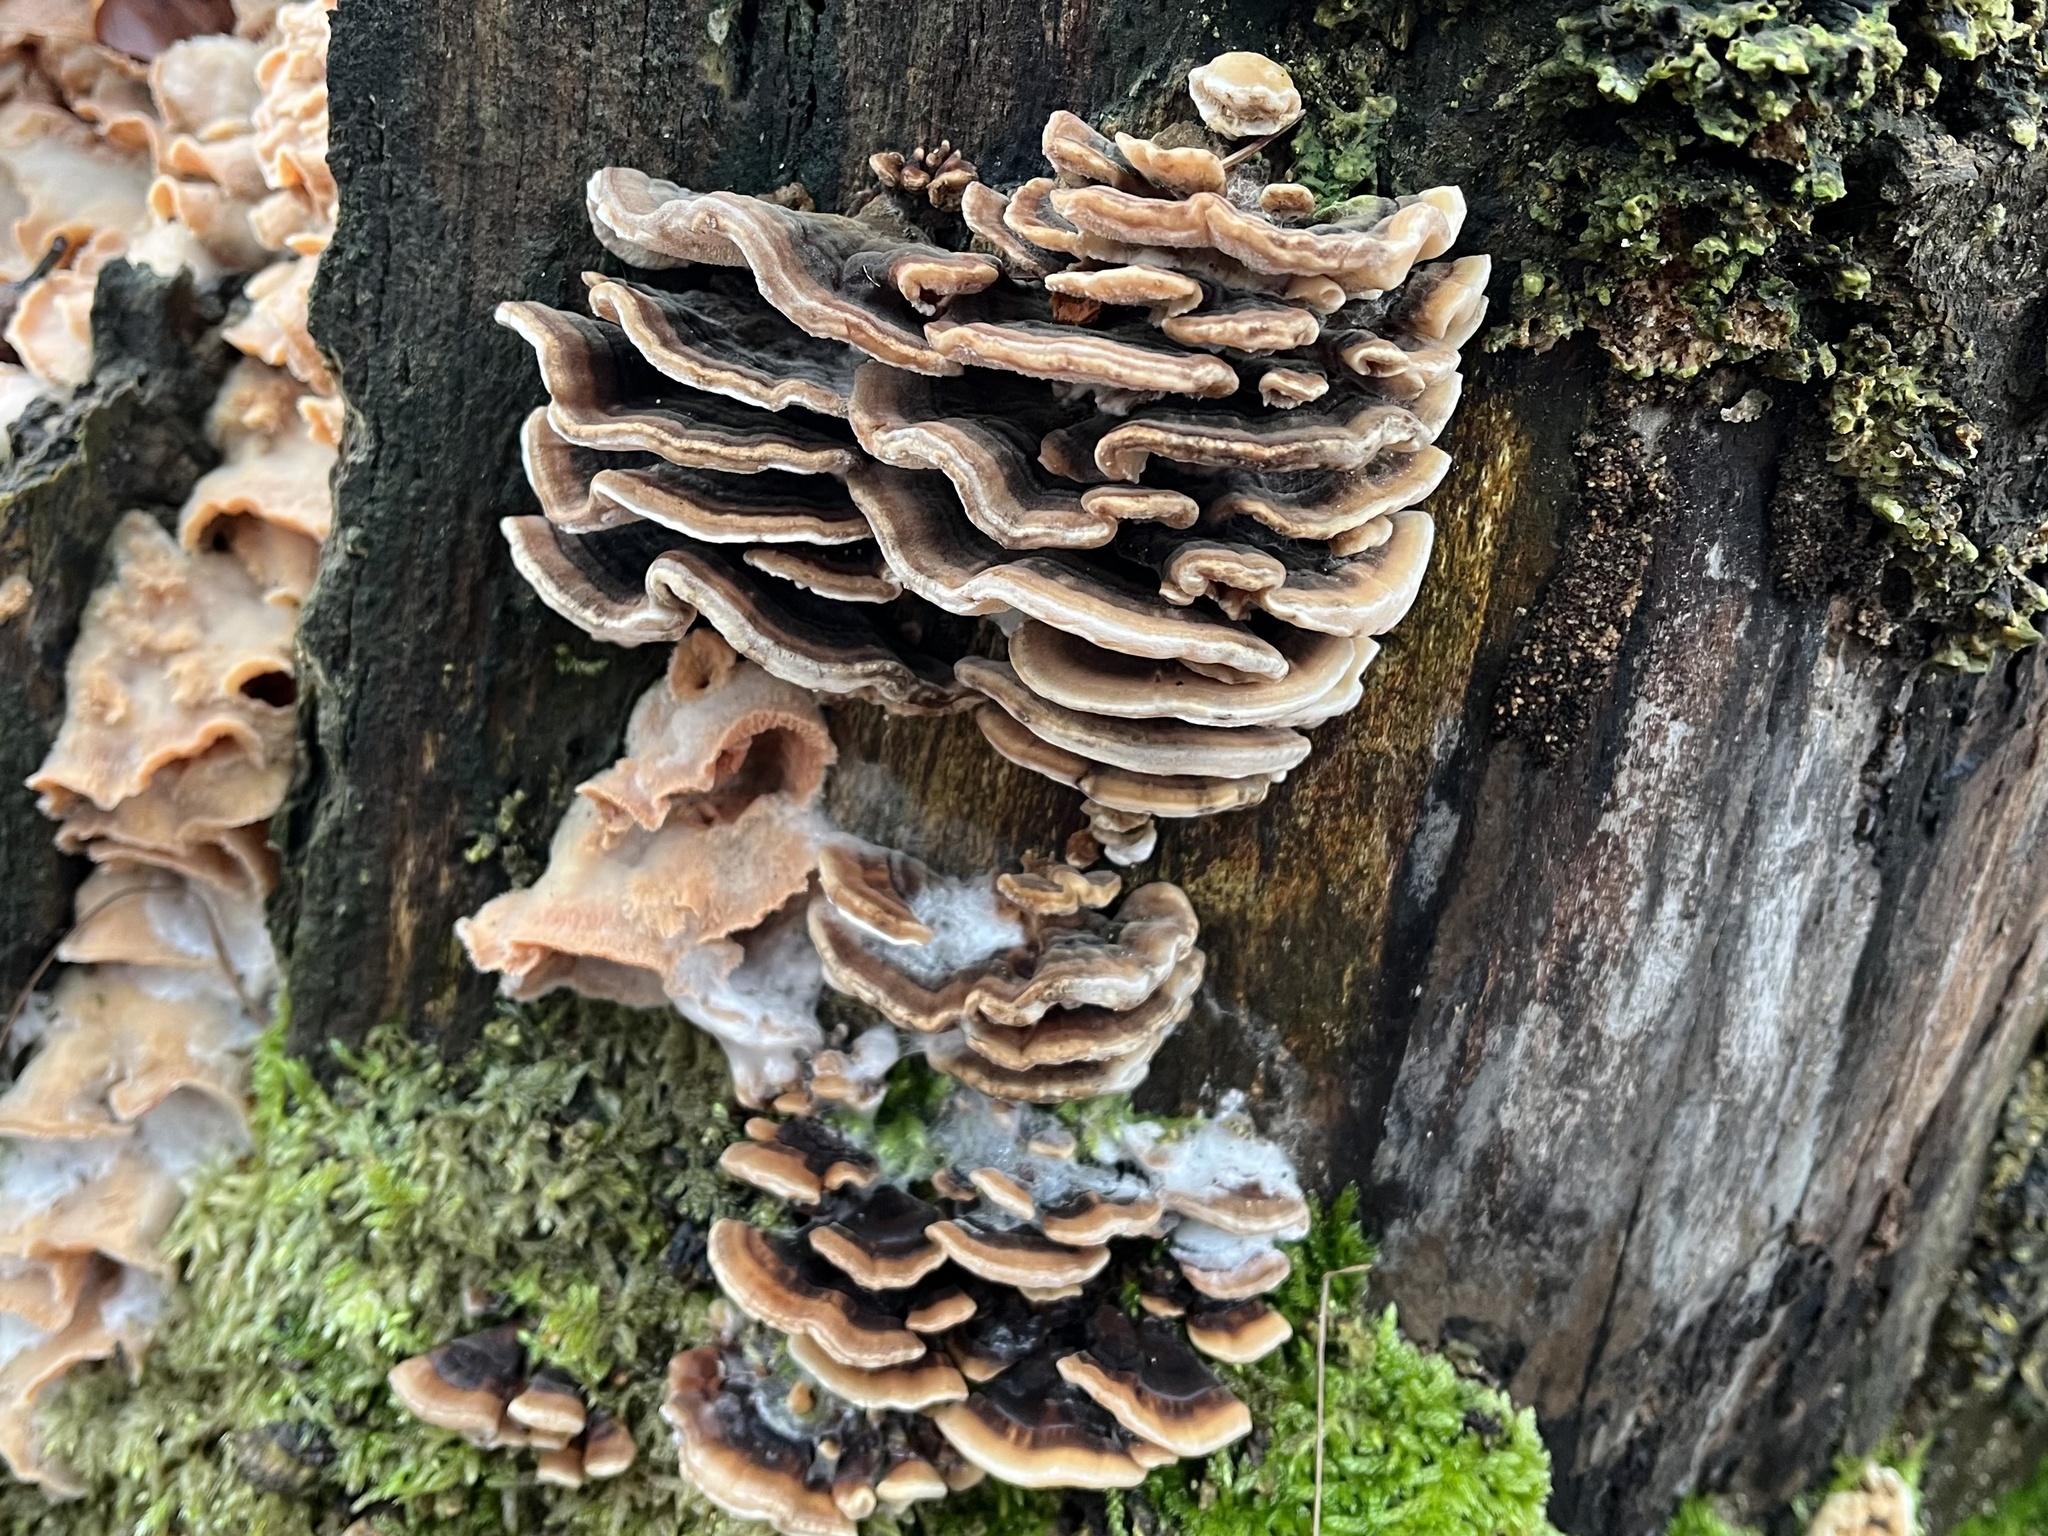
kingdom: Fungi
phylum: Basidiomycota
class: Agaricomycetes
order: Polyporales
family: Polyporaceae
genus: Trametes
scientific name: Trametes versicolor
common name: Turkeytail
